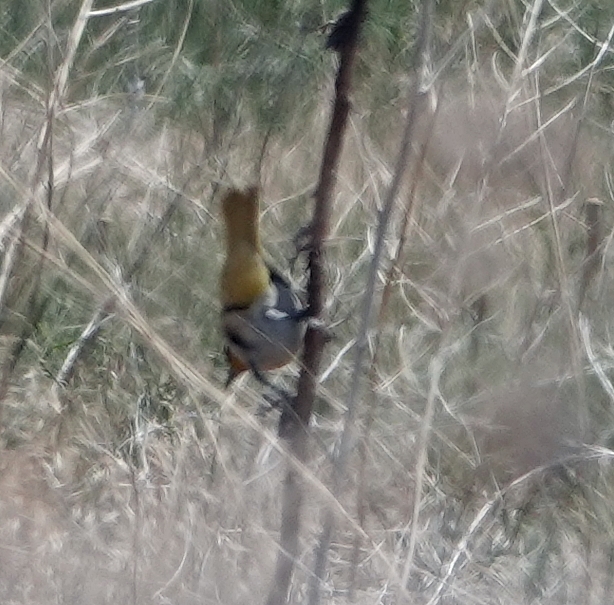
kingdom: Animalia
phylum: Chordata
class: Aves
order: Passeriformes
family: Icteridae
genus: Icterus
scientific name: Icterus bullockii
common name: Bullock's oriole
